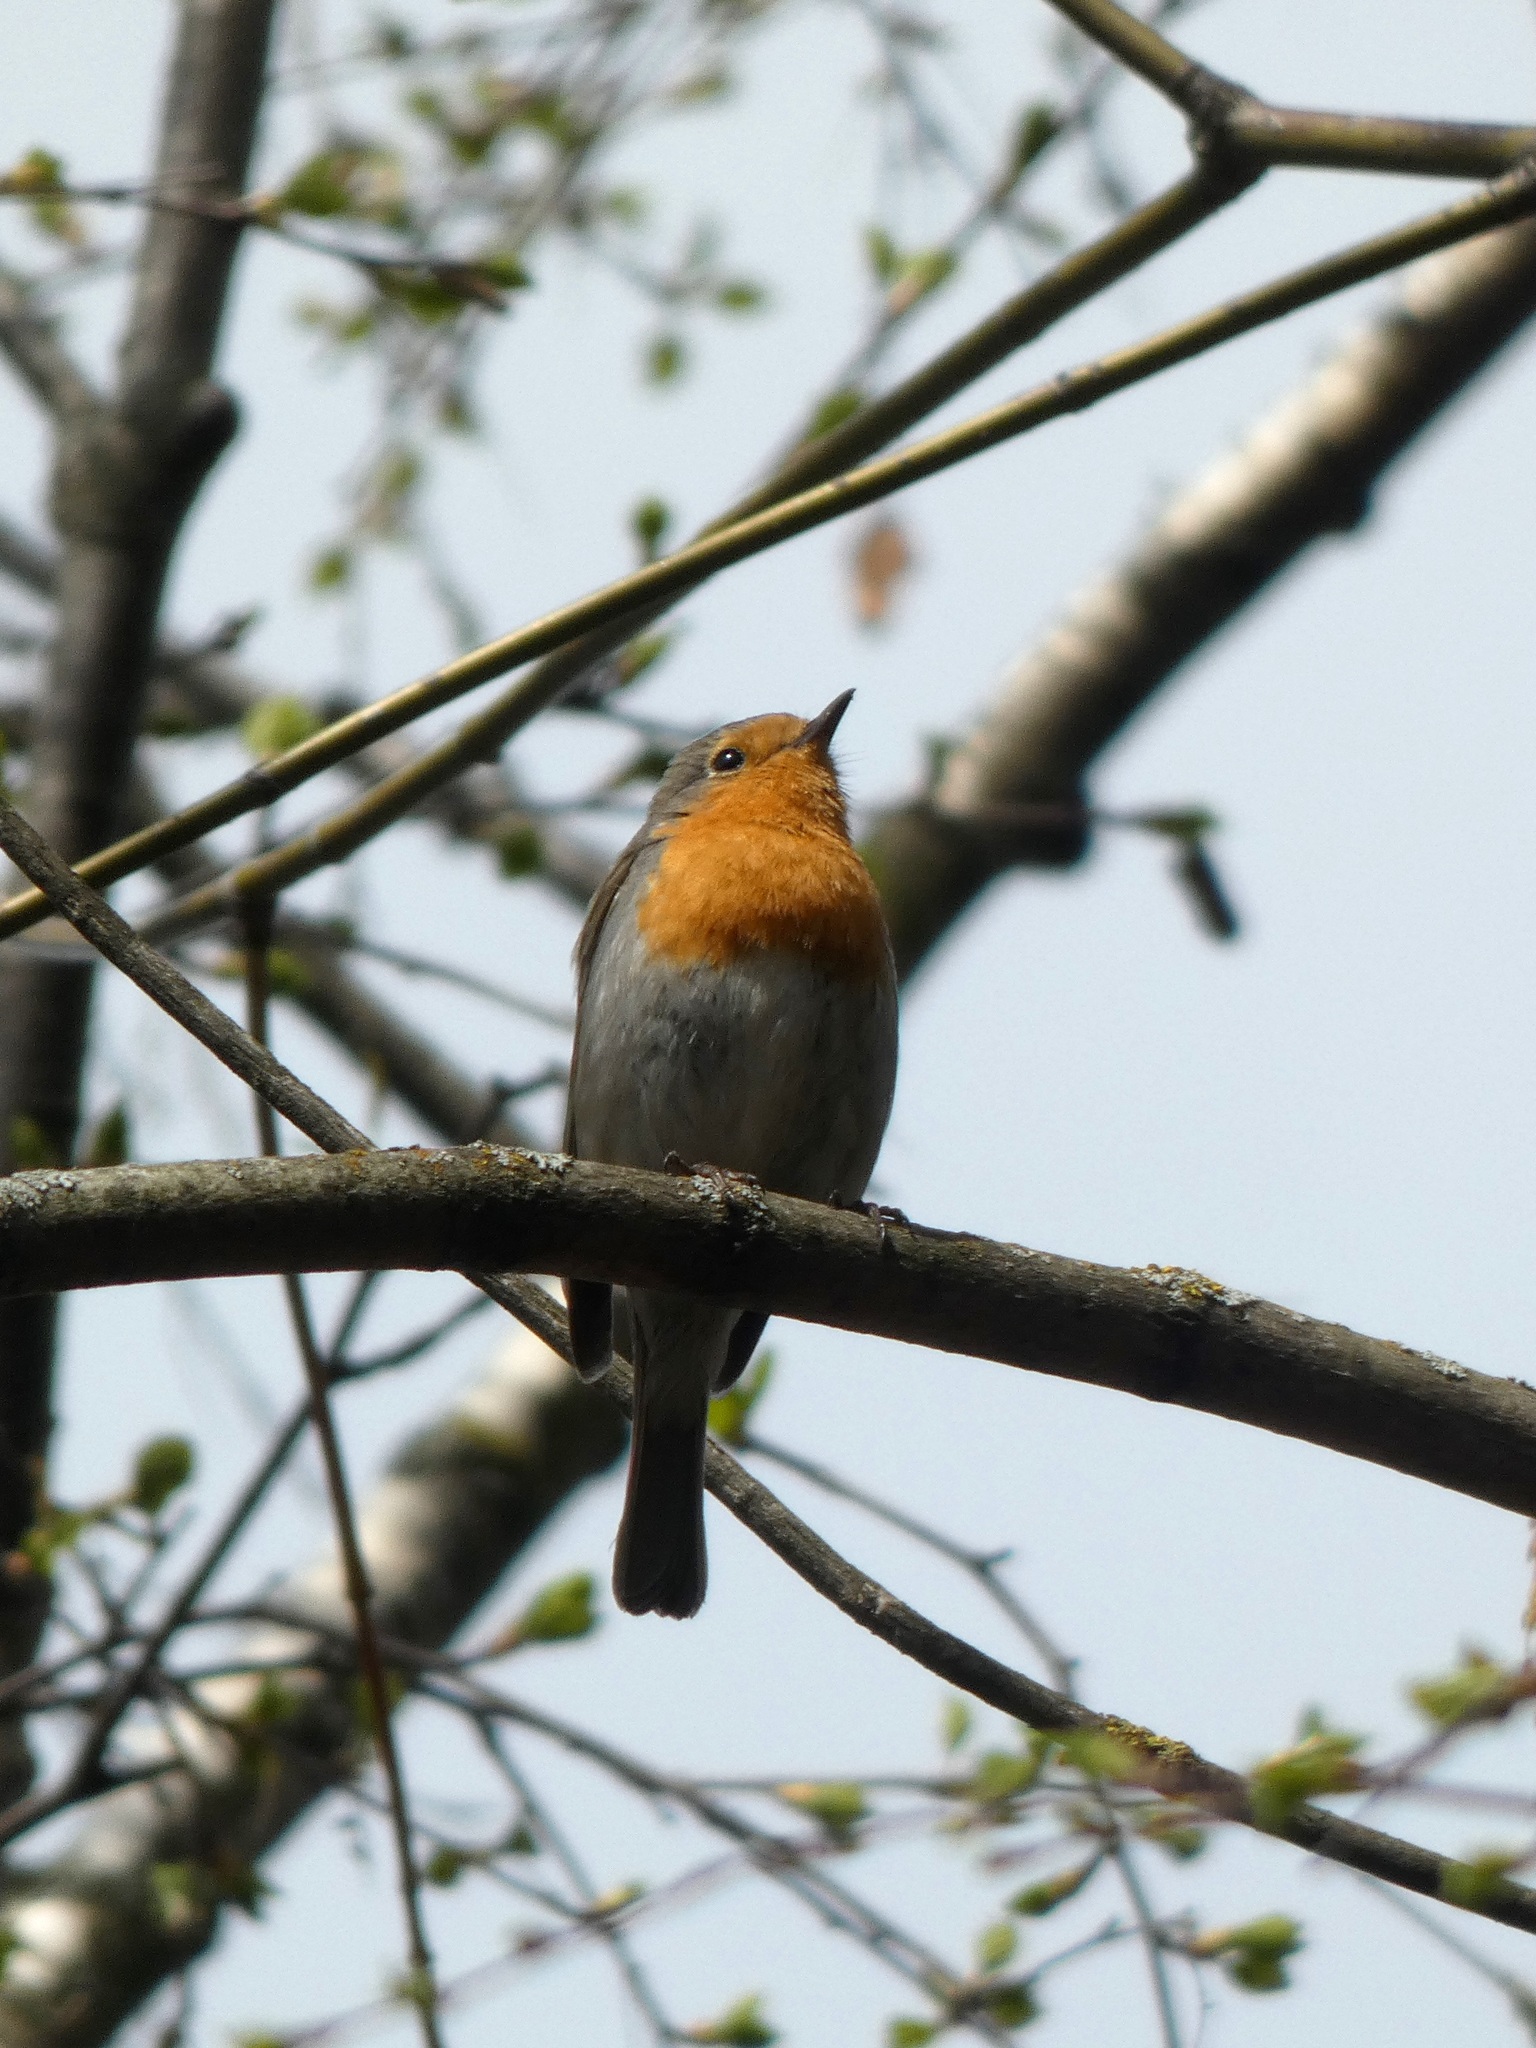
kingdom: Animalia
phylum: Chordata
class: Aves
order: Passeriformes
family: Muscicapidae
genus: Erithacus
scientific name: Erithacus rubecula
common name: European robin
